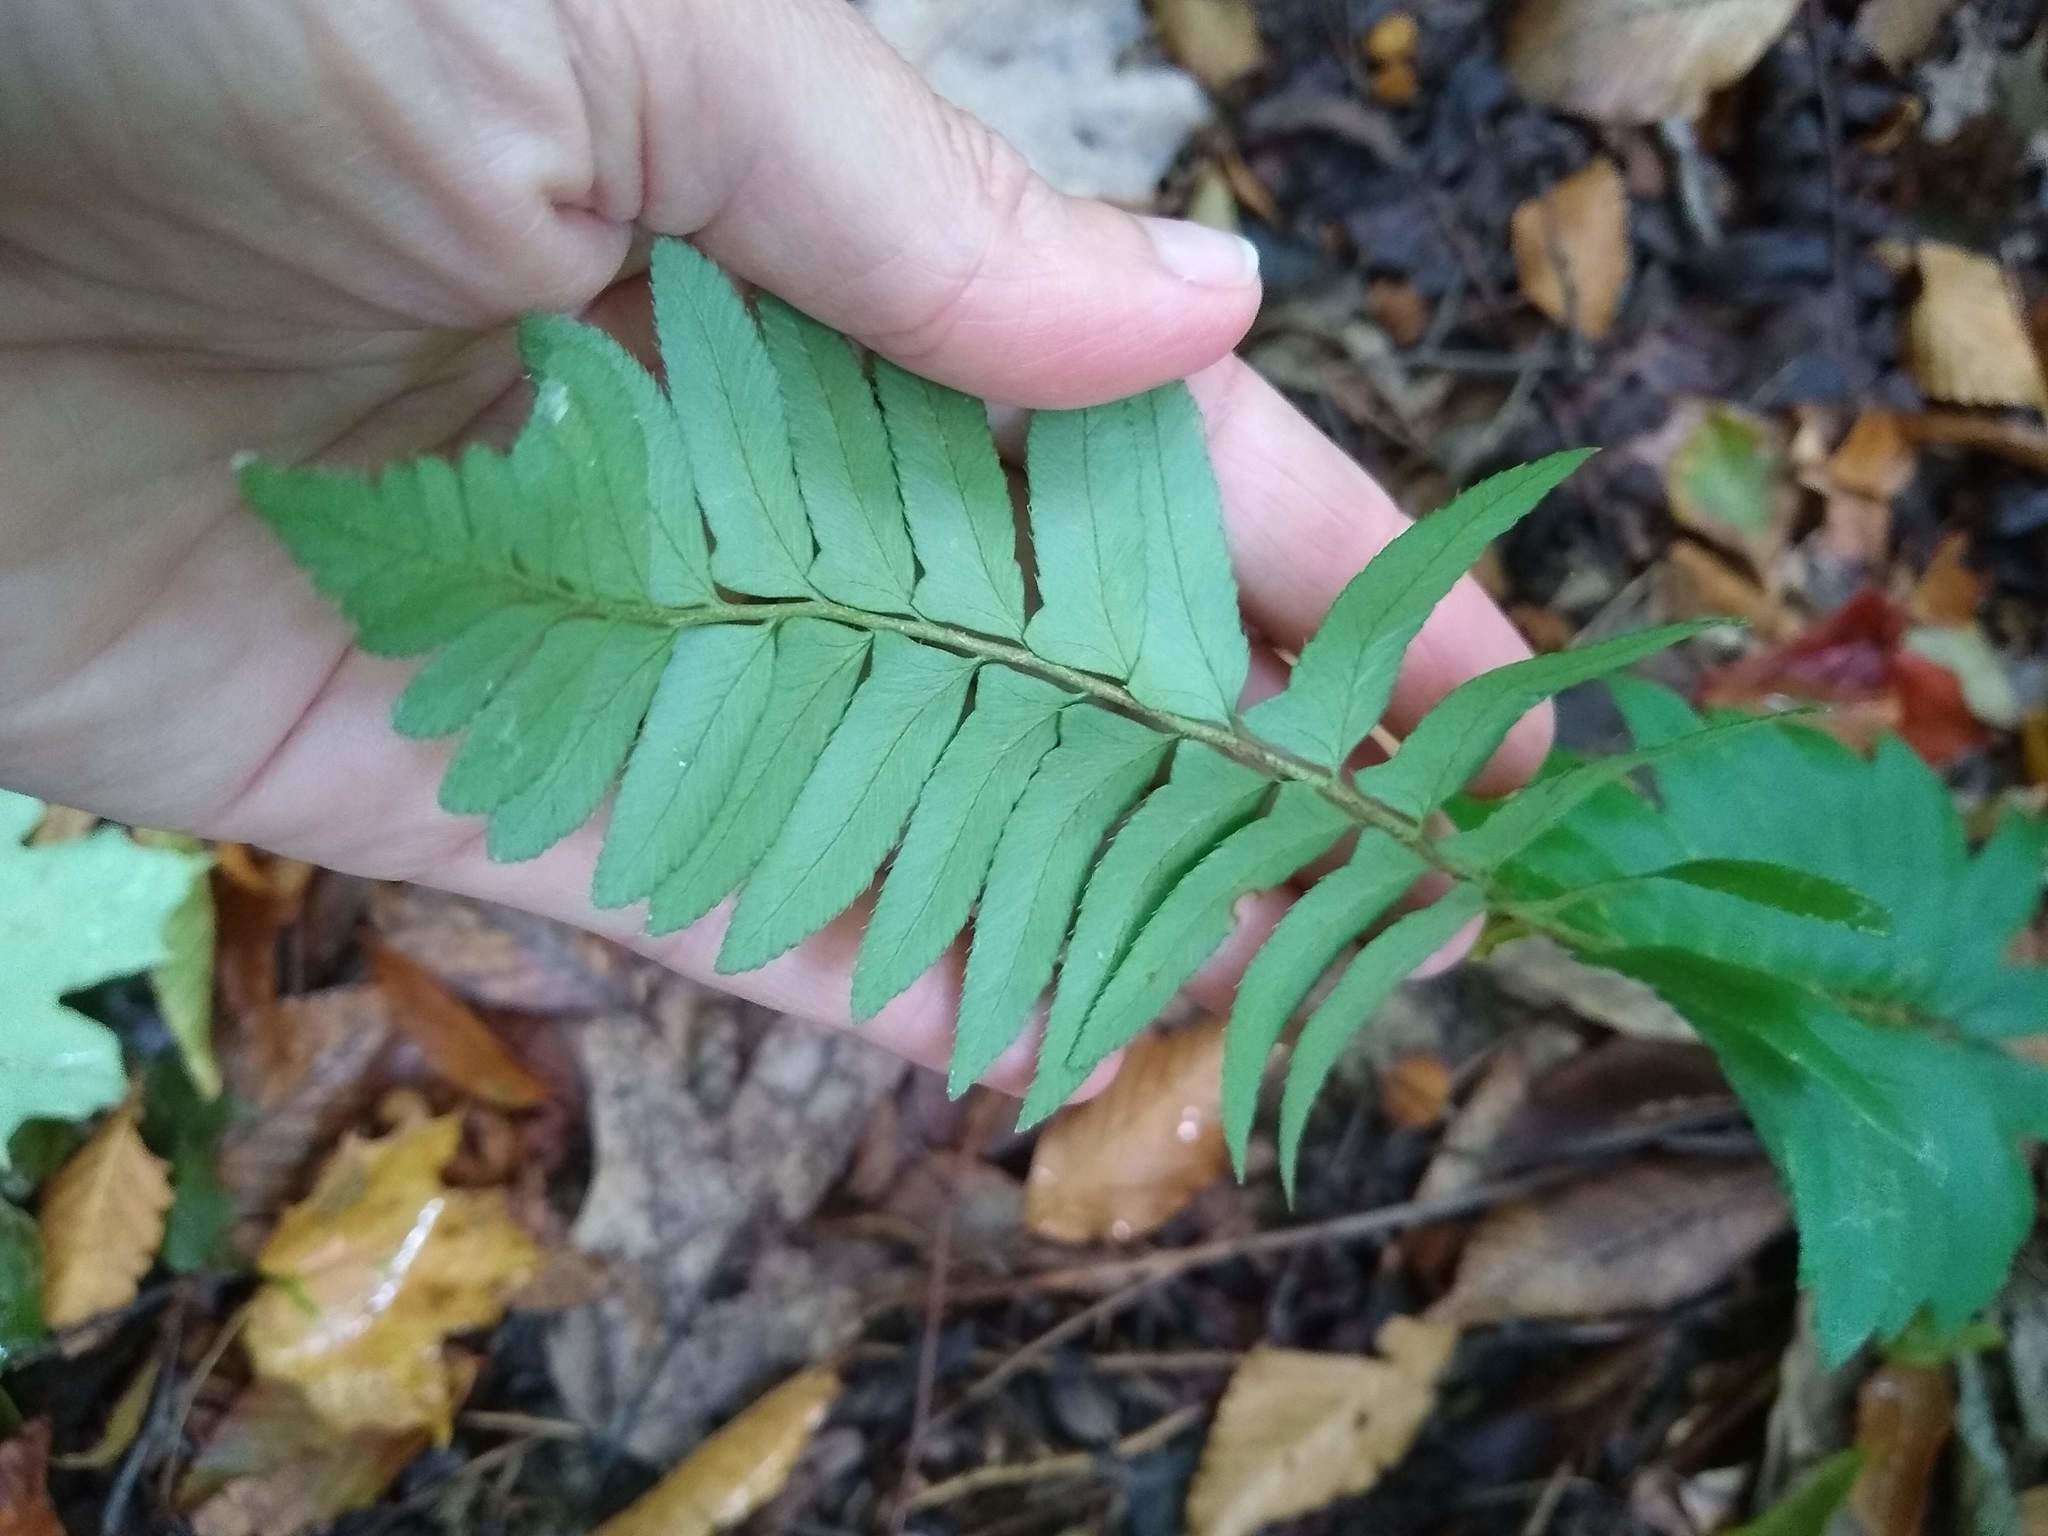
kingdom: Plantae
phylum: Tracheophyta
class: Polypodiopsida
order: Polypodiales
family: Dryopteridaceae
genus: Polystichum
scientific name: Polystichum acrostichoides
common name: Christmas fern
